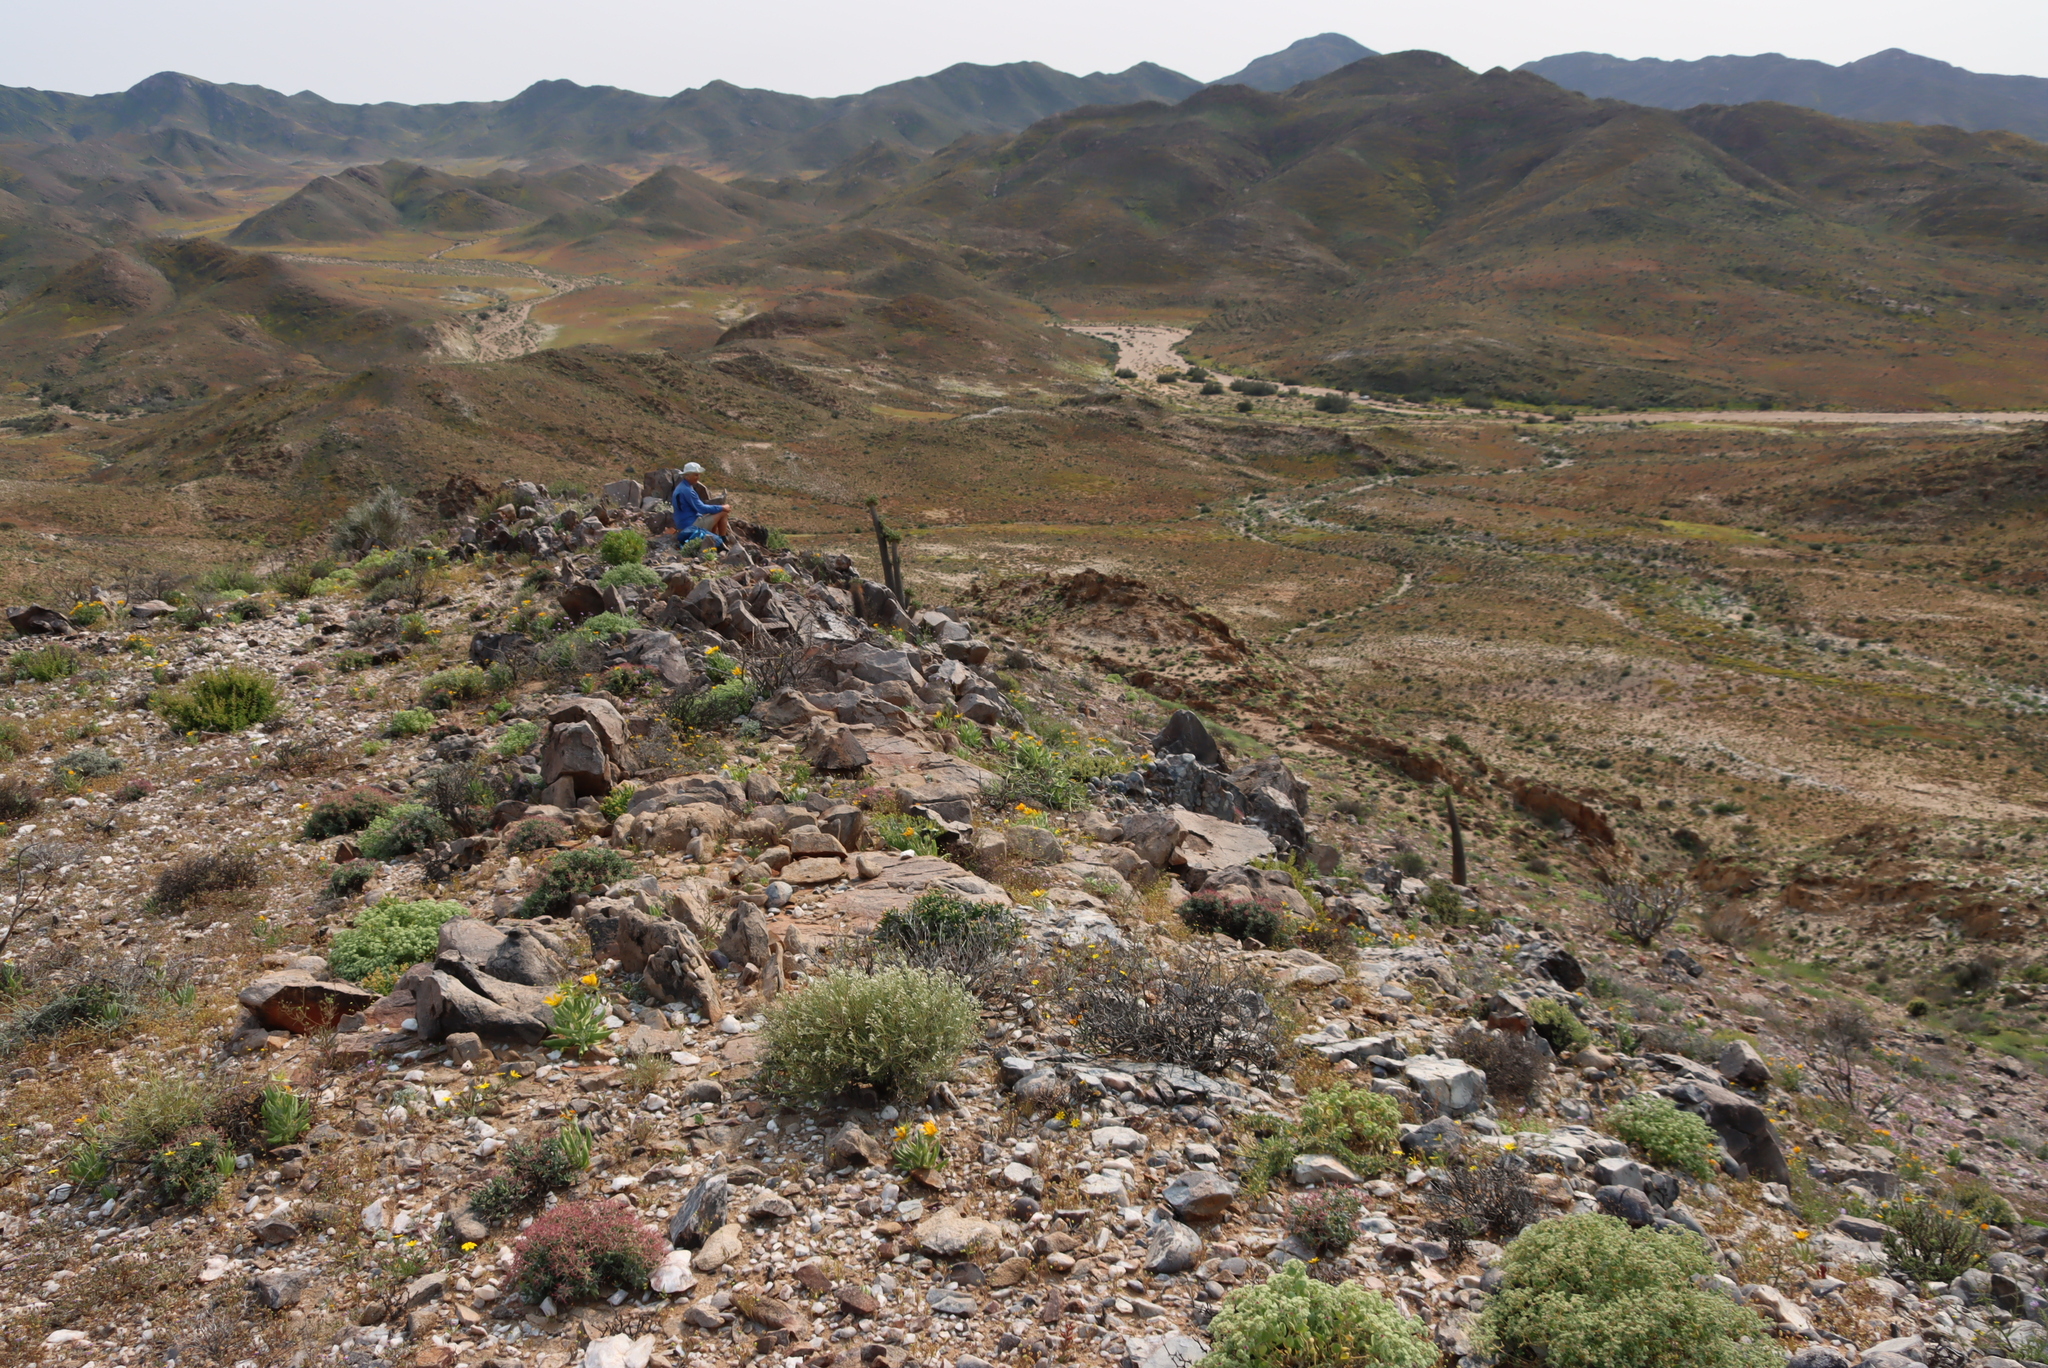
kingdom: Plantae
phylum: Tracheophyta
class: Magnoliopsida
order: Gentianales
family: Apocynaceae
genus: Pachypodium
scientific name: Pachypodium namaquanum
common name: Elephant's trunk
